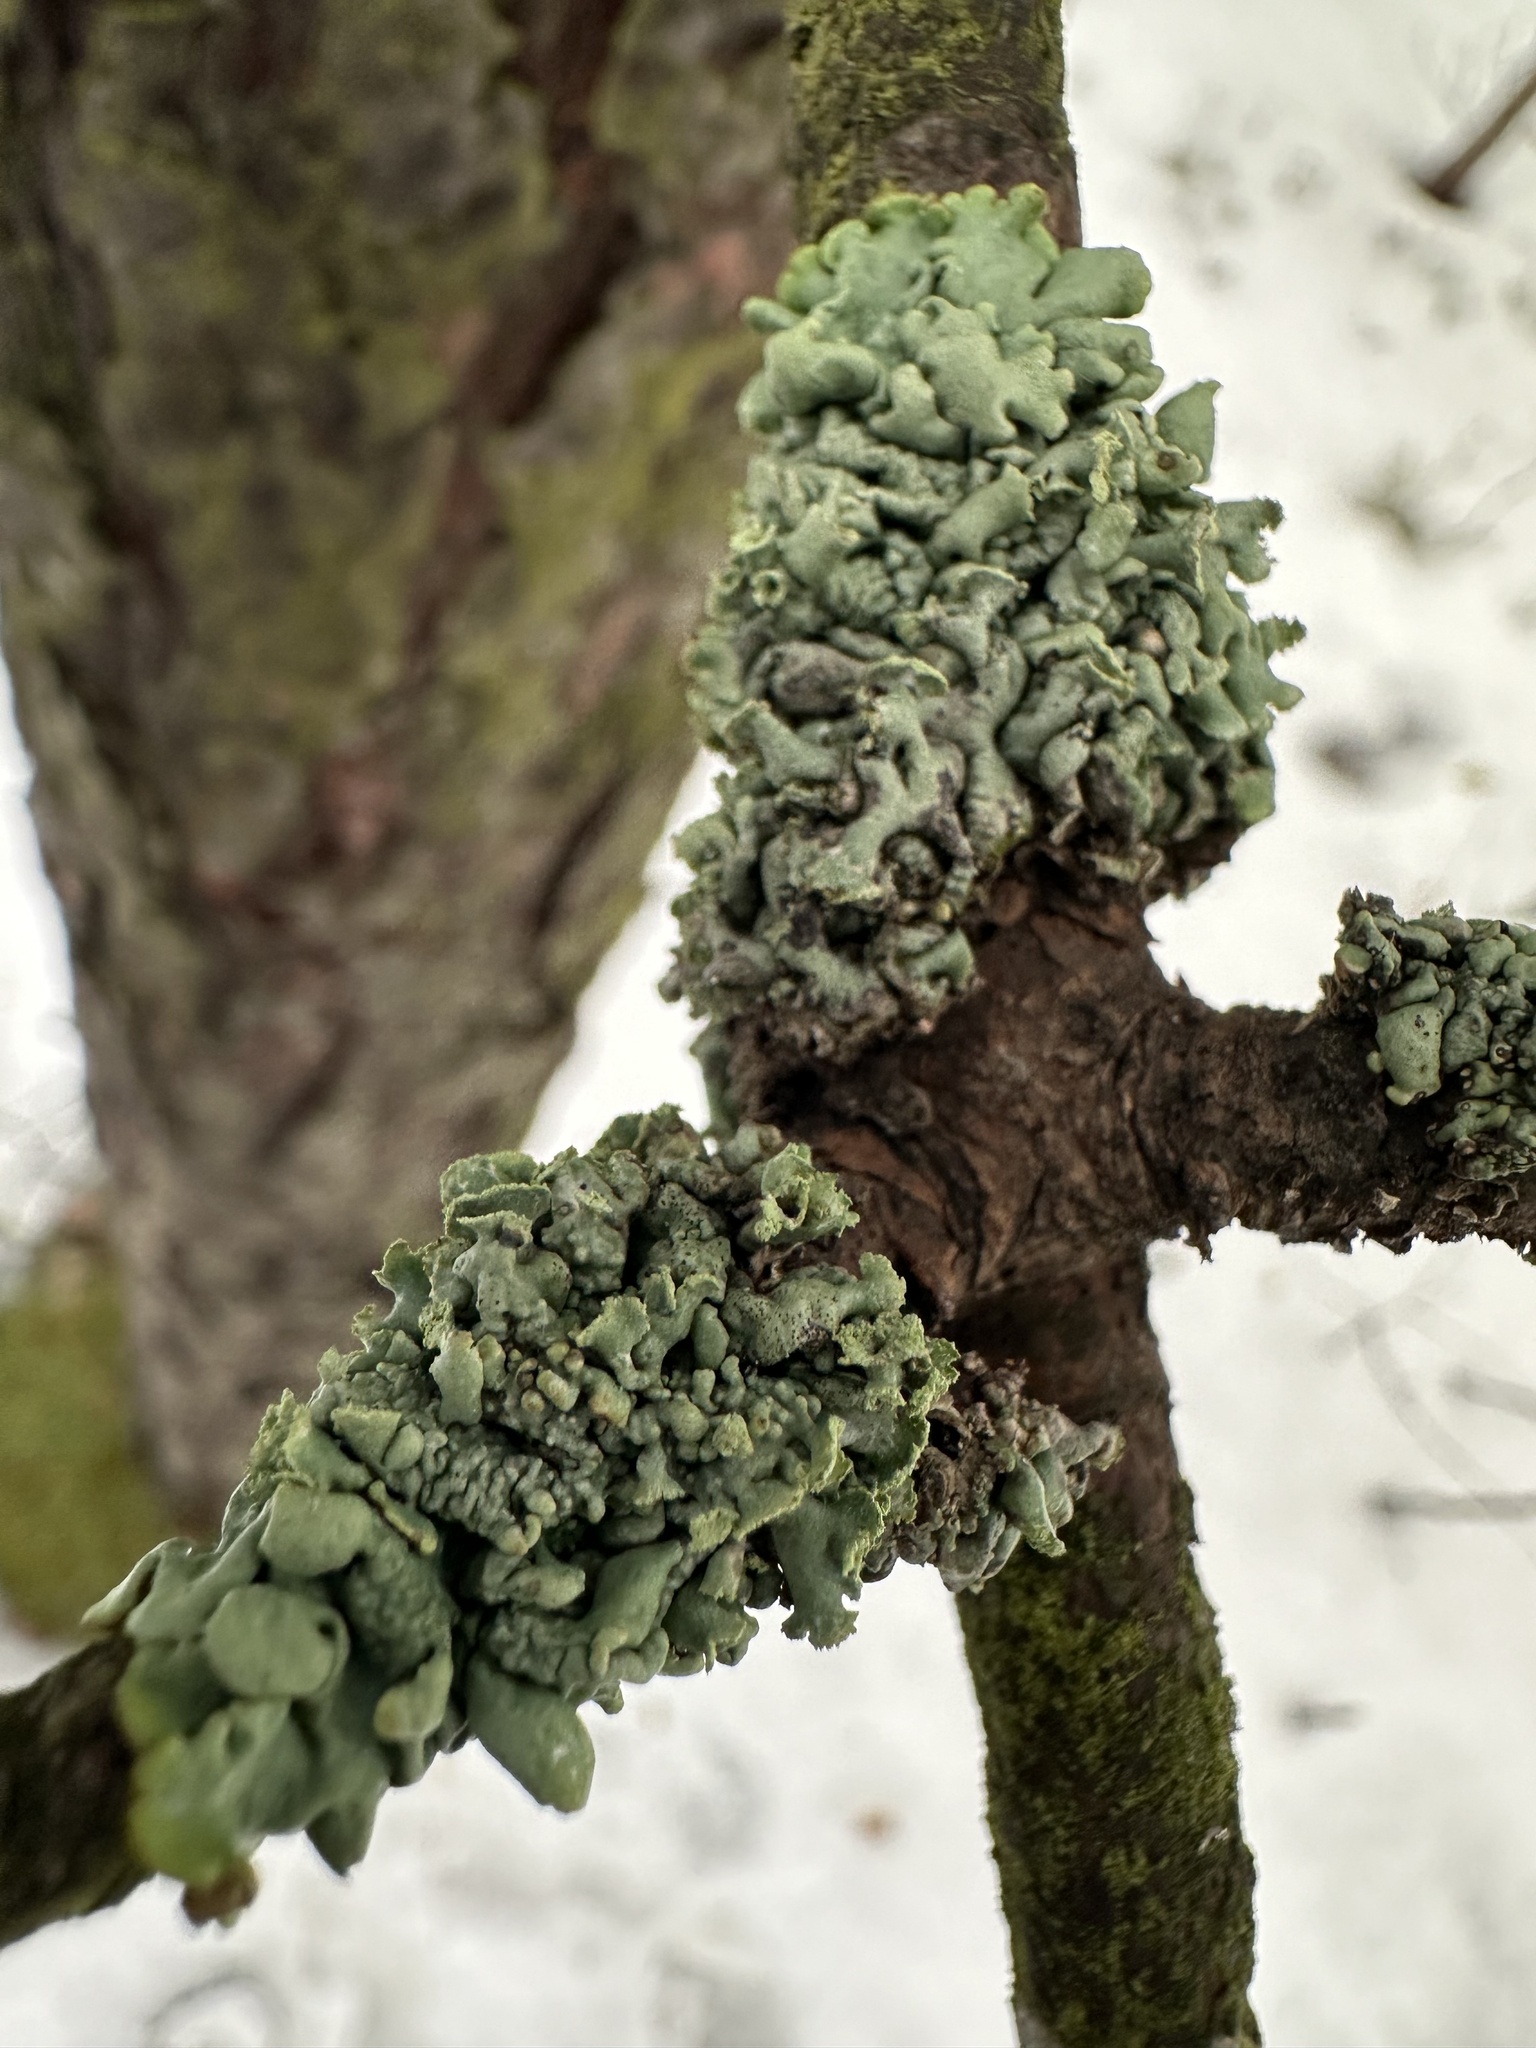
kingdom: Fungi
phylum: Ascomycota
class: Lecanoromycetes
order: Lecanorales
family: Parmeliaceae
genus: Hypogymnia
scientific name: Hypogymnia physodes
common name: Dark crottle
